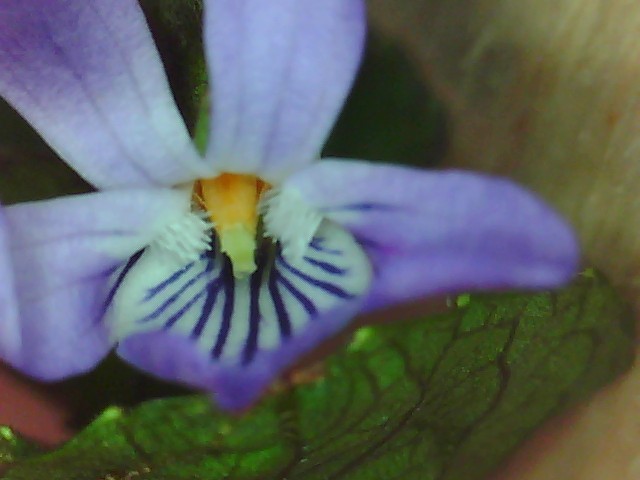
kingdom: Plantae
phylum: Tracheophyta
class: Magnoliopsida
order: Malpighiales
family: Violaceae
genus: Viola
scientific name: Viola odorata
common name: Sweet violet
